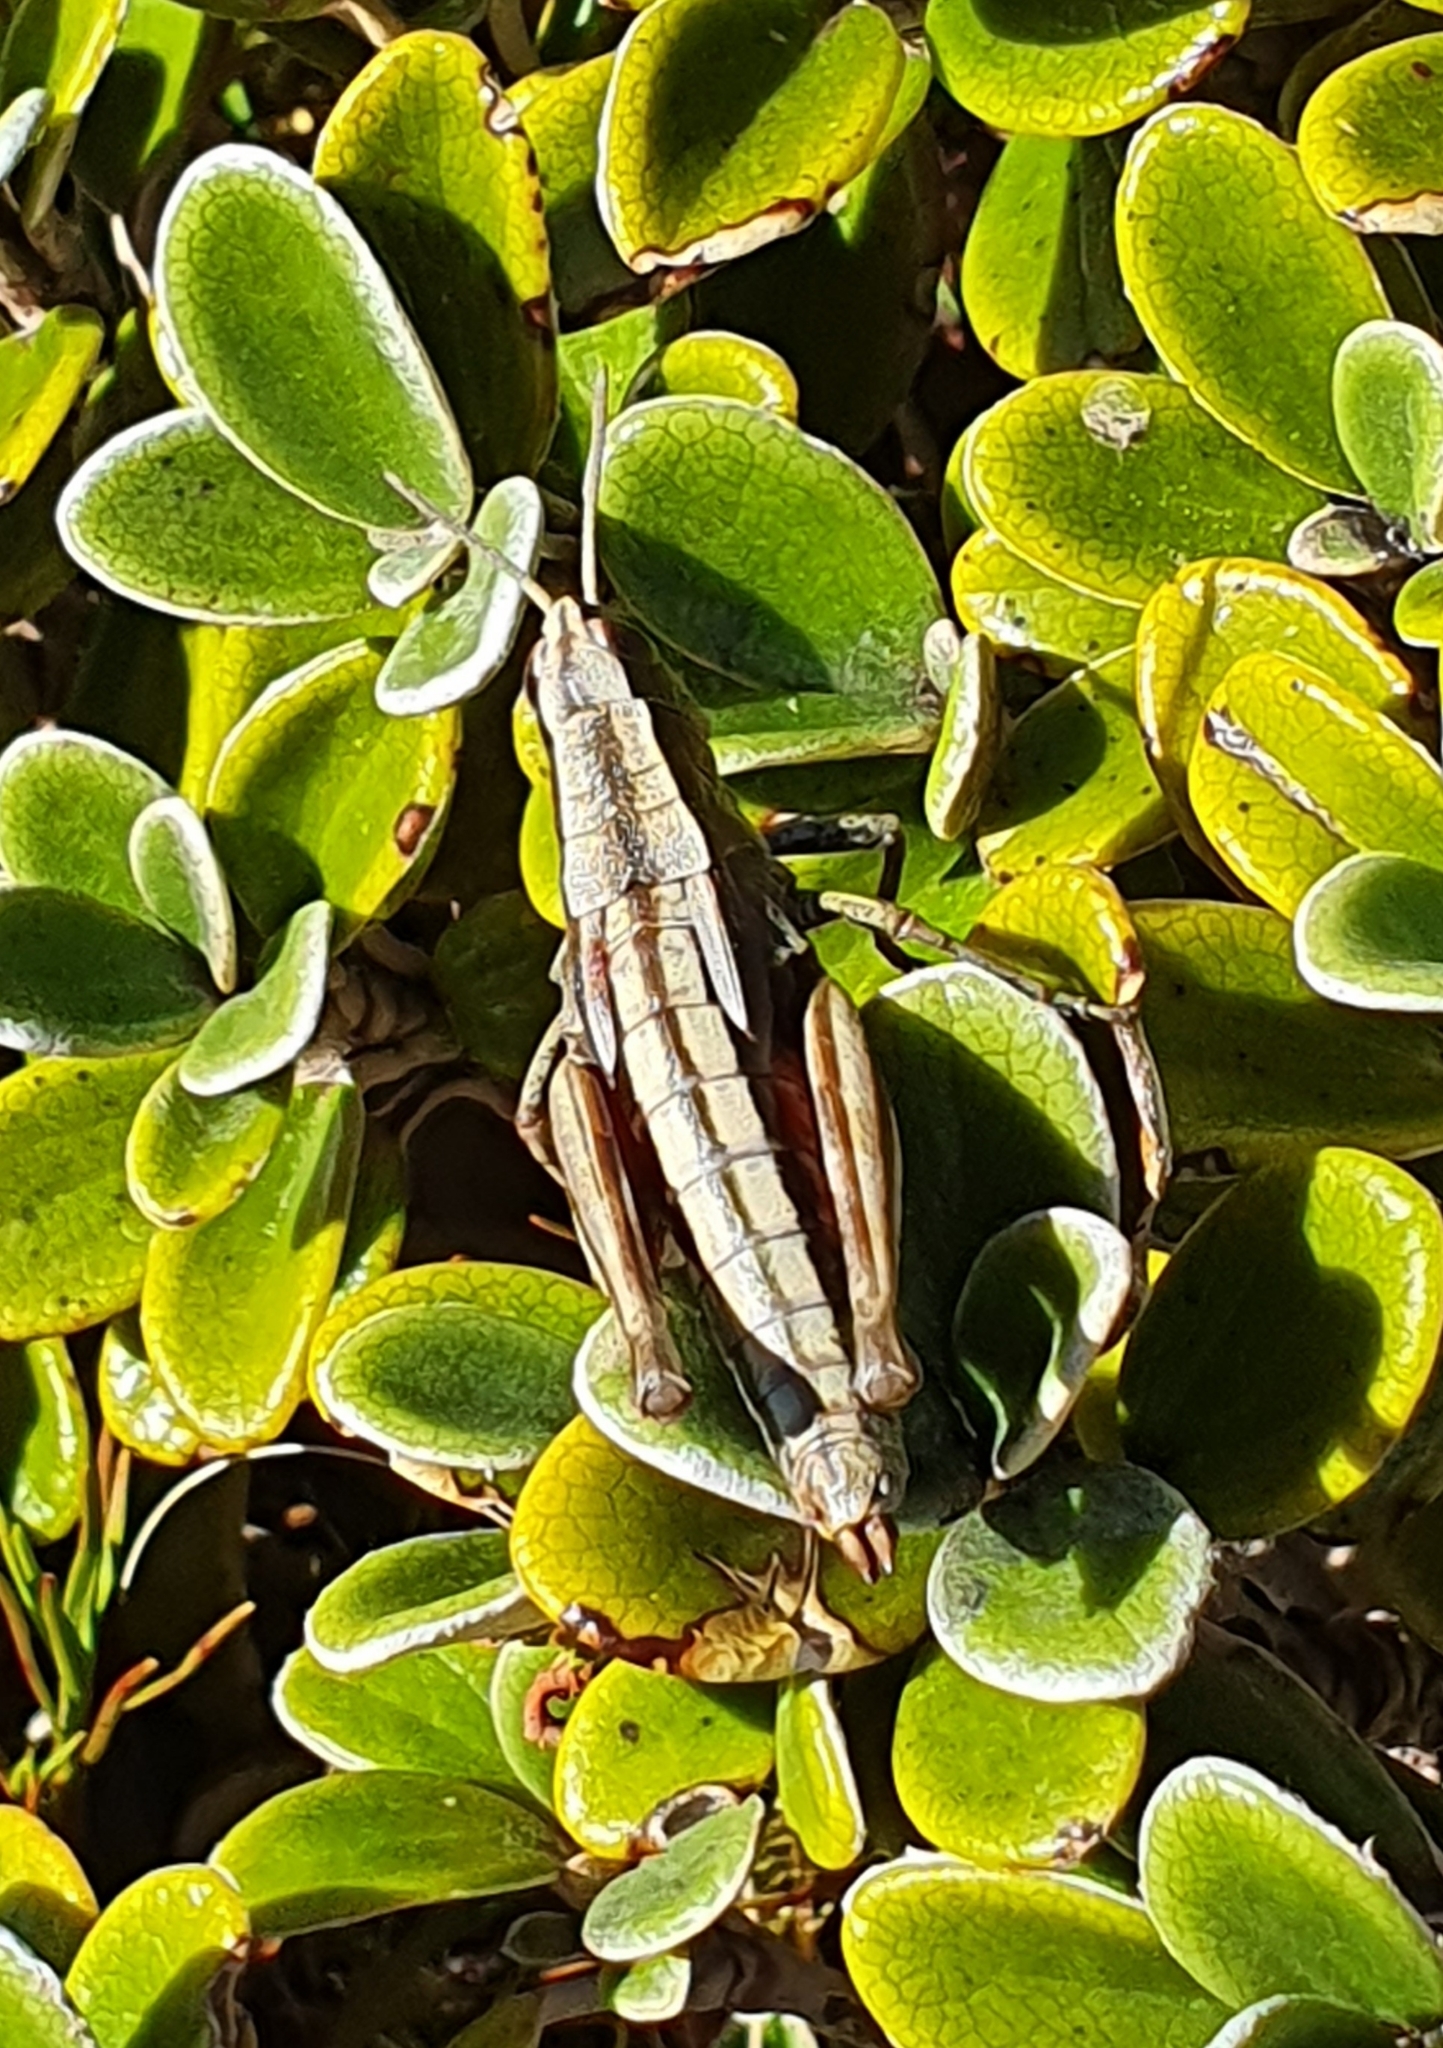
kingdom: Animalia
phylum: Arthropoda
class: Insecta
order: Orthoptera
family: Acrididae
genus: Sigaus
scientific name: Sigaus piliferus
